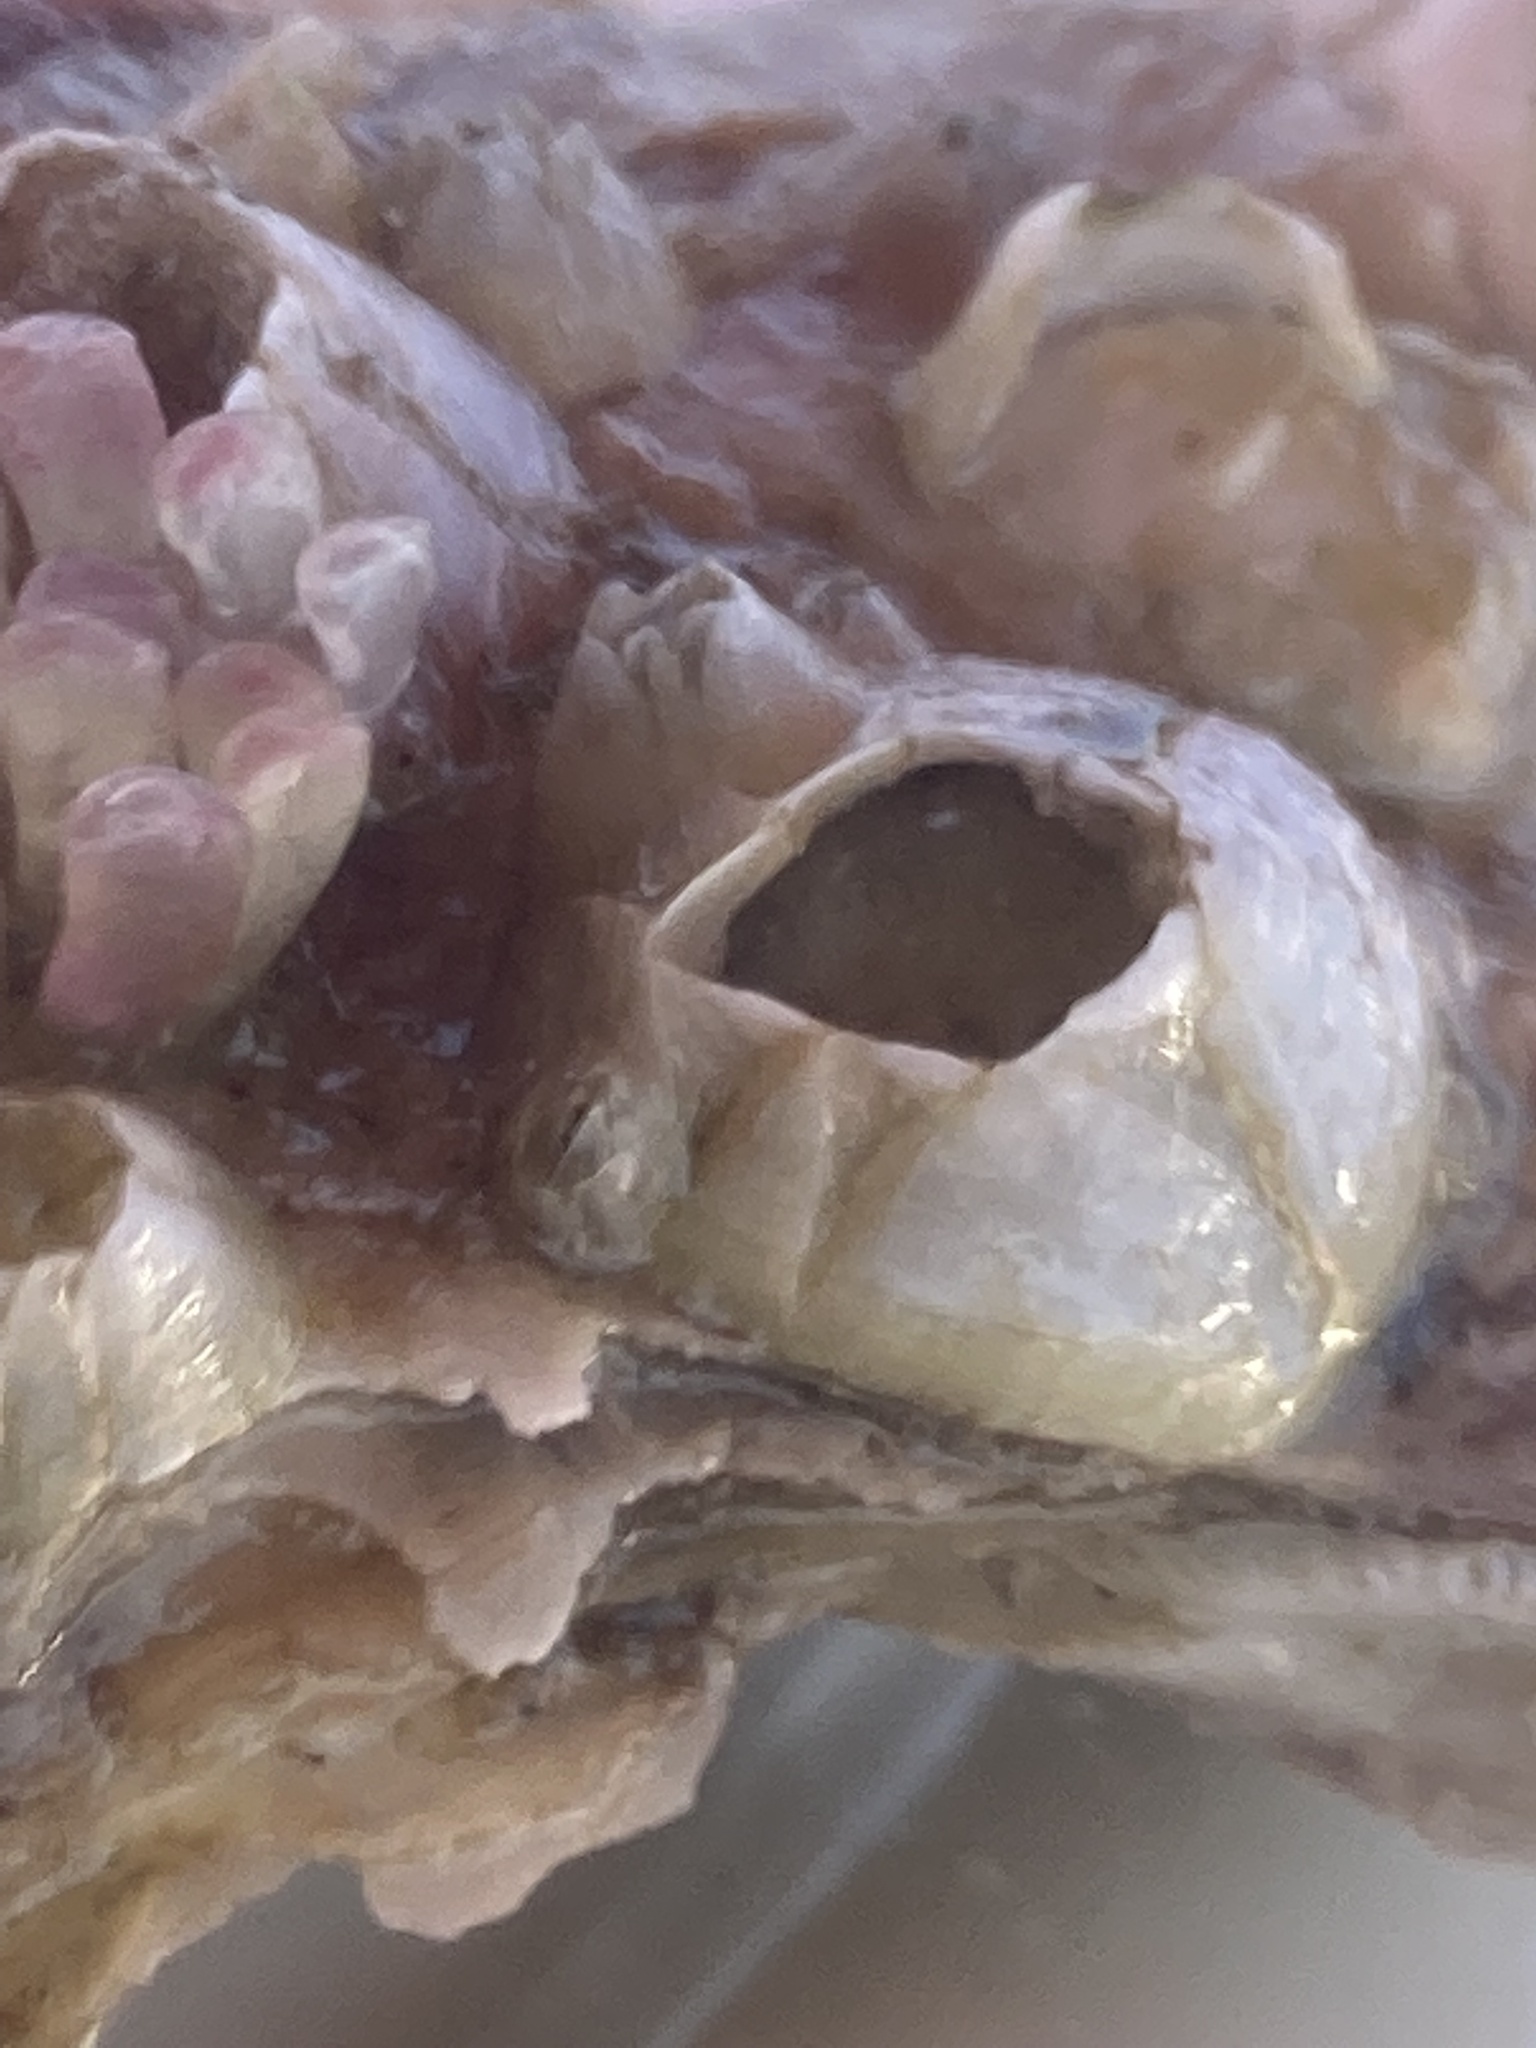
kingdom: Animalia
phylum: Arthropoda
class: Maxillopoda
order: Sessilia
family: Balanidae
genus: Amphibalanus
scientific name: Amphibalanus improvisus
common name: Bay barnacle
